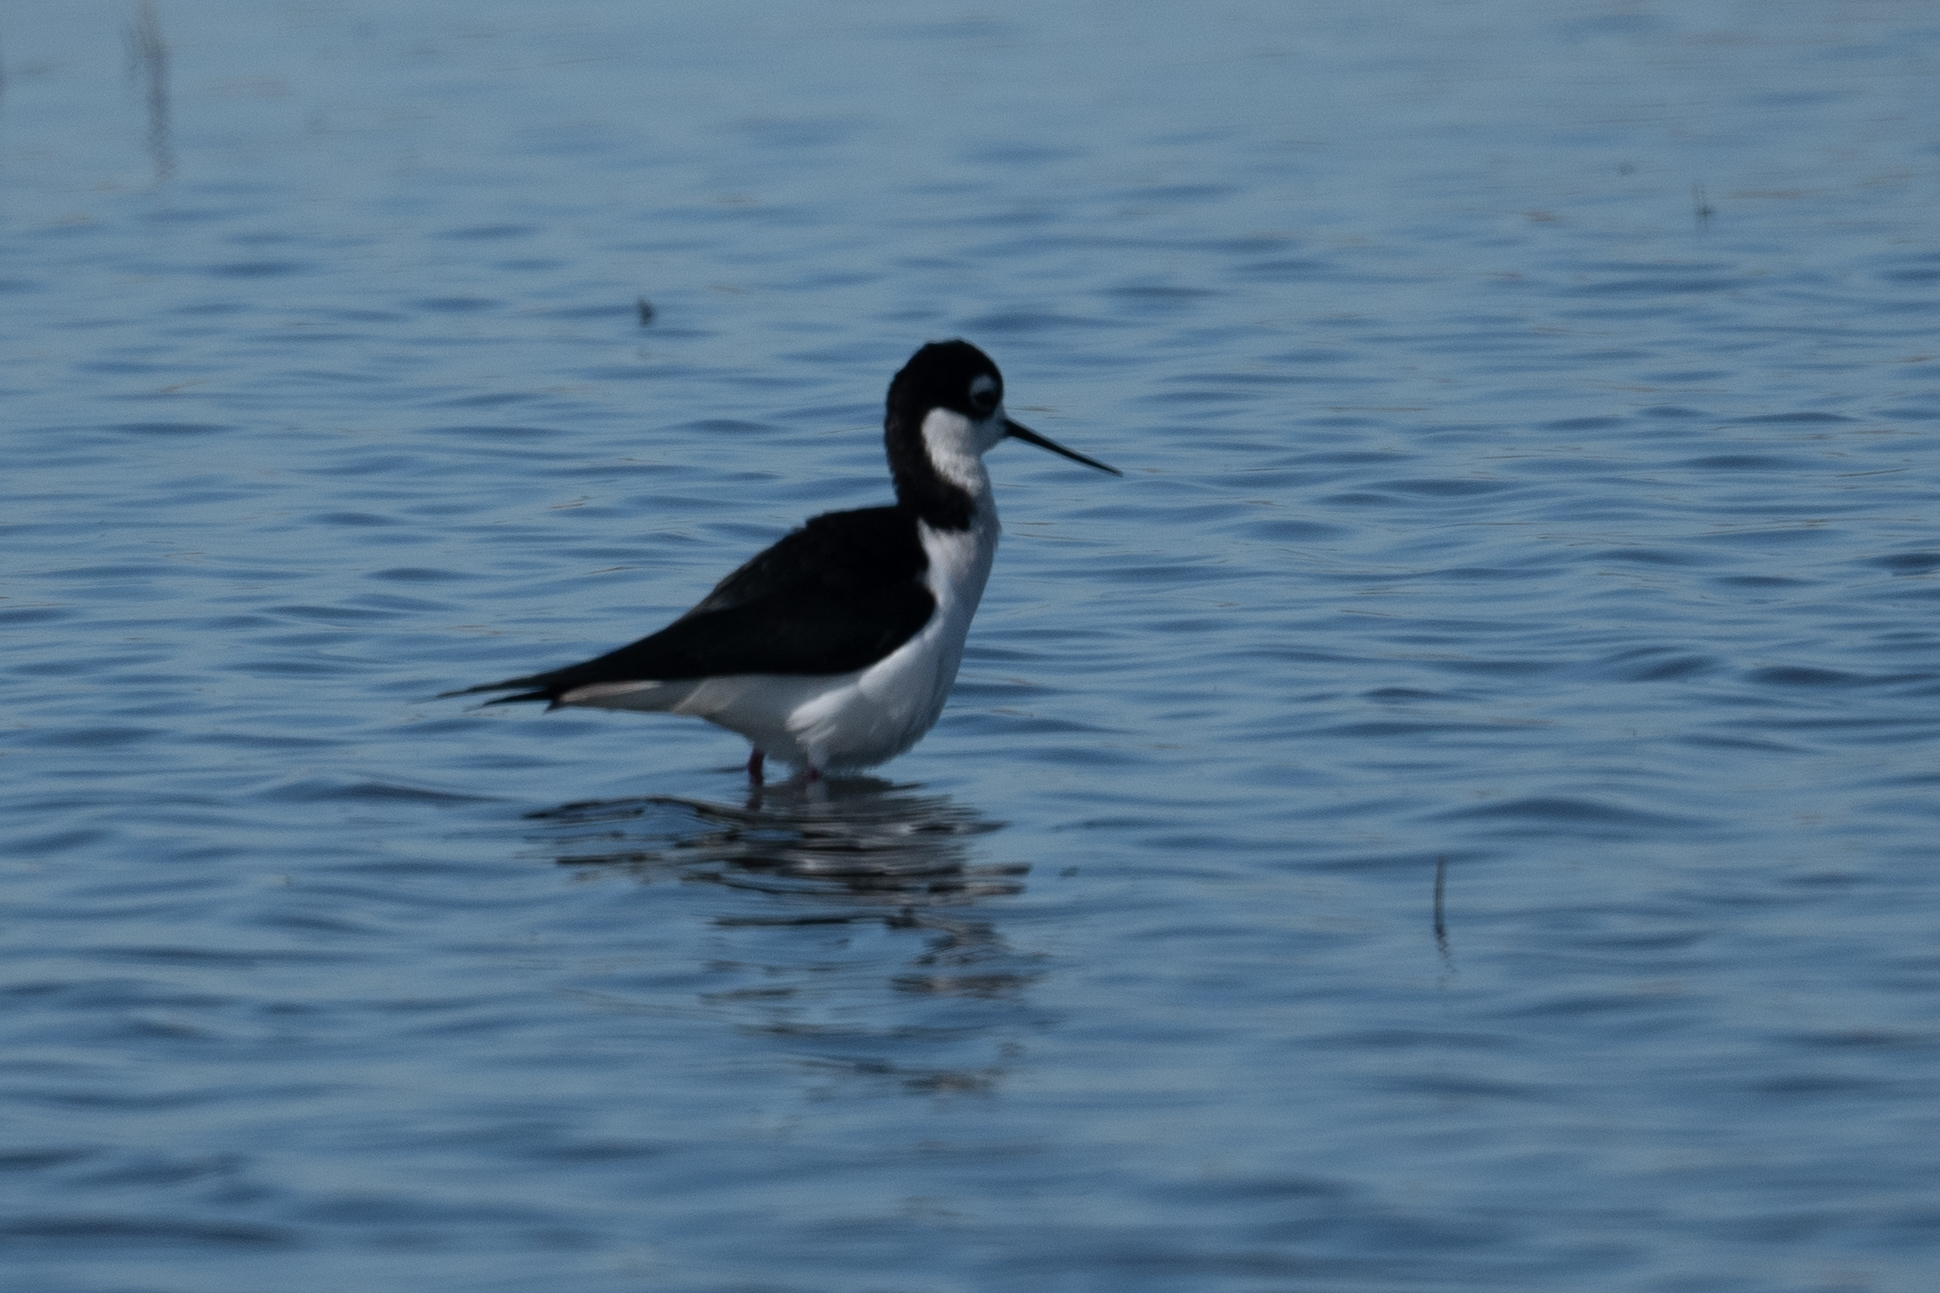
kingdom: Animalia
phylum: Chordata
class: Aves
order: Charadriiformes
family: Recurvirostridae
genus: Himantopus
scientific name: Himantopus mexicanus
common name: Black-necked stilt
